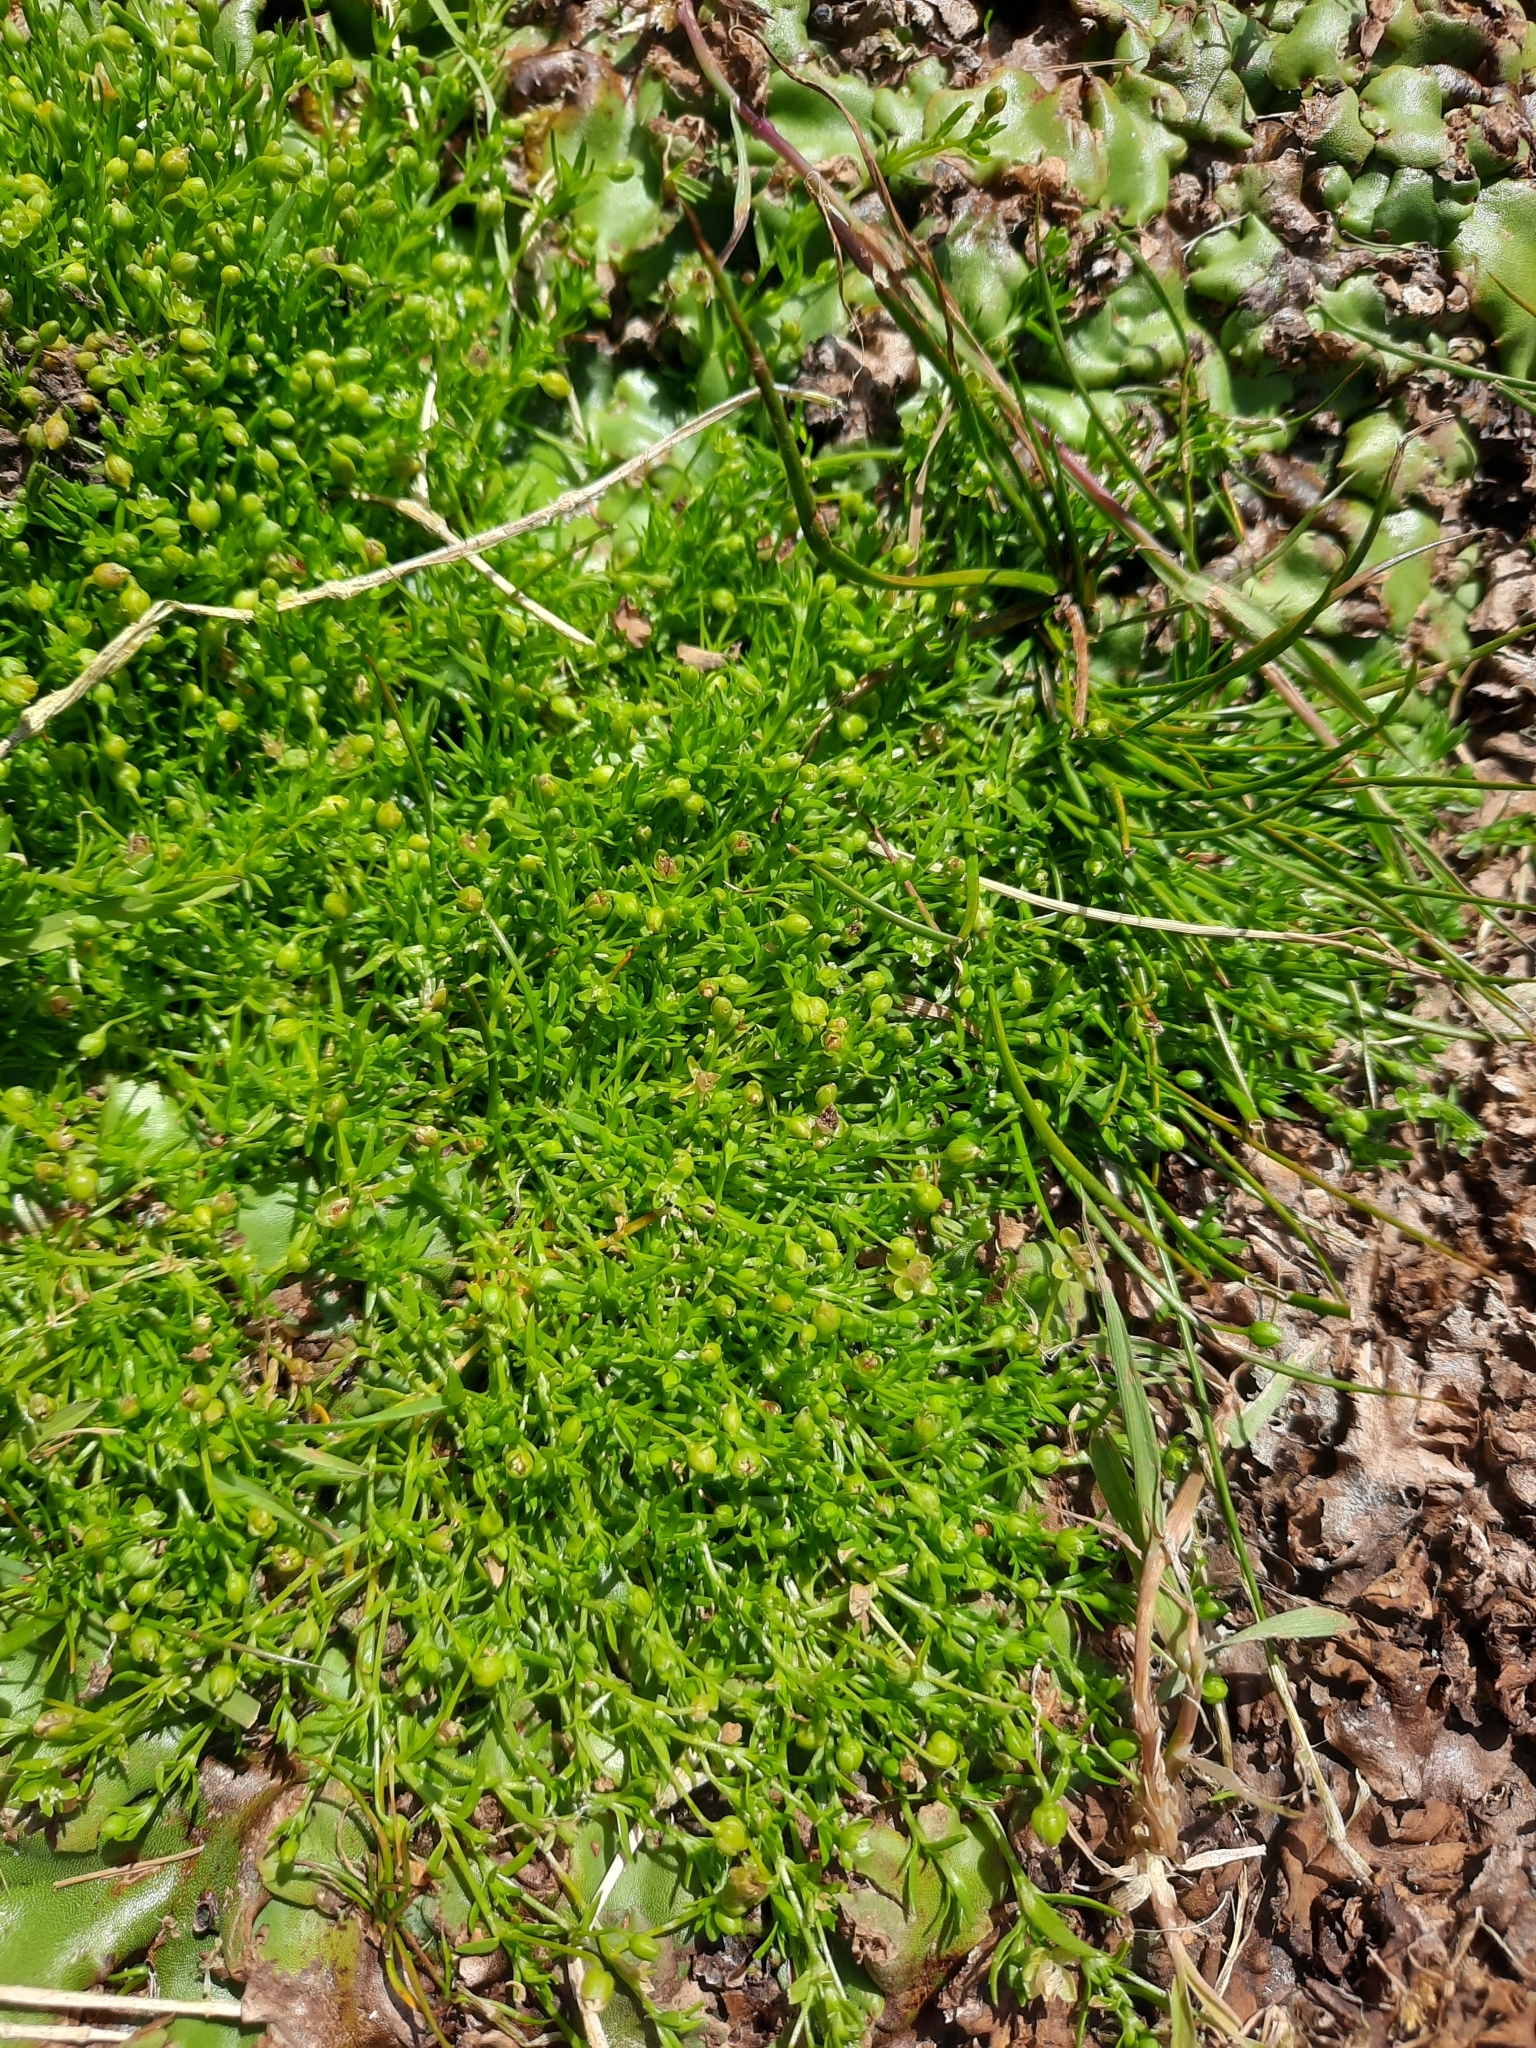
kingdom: Plantae
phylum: Tracheophyta
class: Magnoliopsida
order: Caryophyllales
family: Caryophyllaceae
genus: Sagina
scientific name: Sagina procumbens
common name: Procumbent pearlwort
